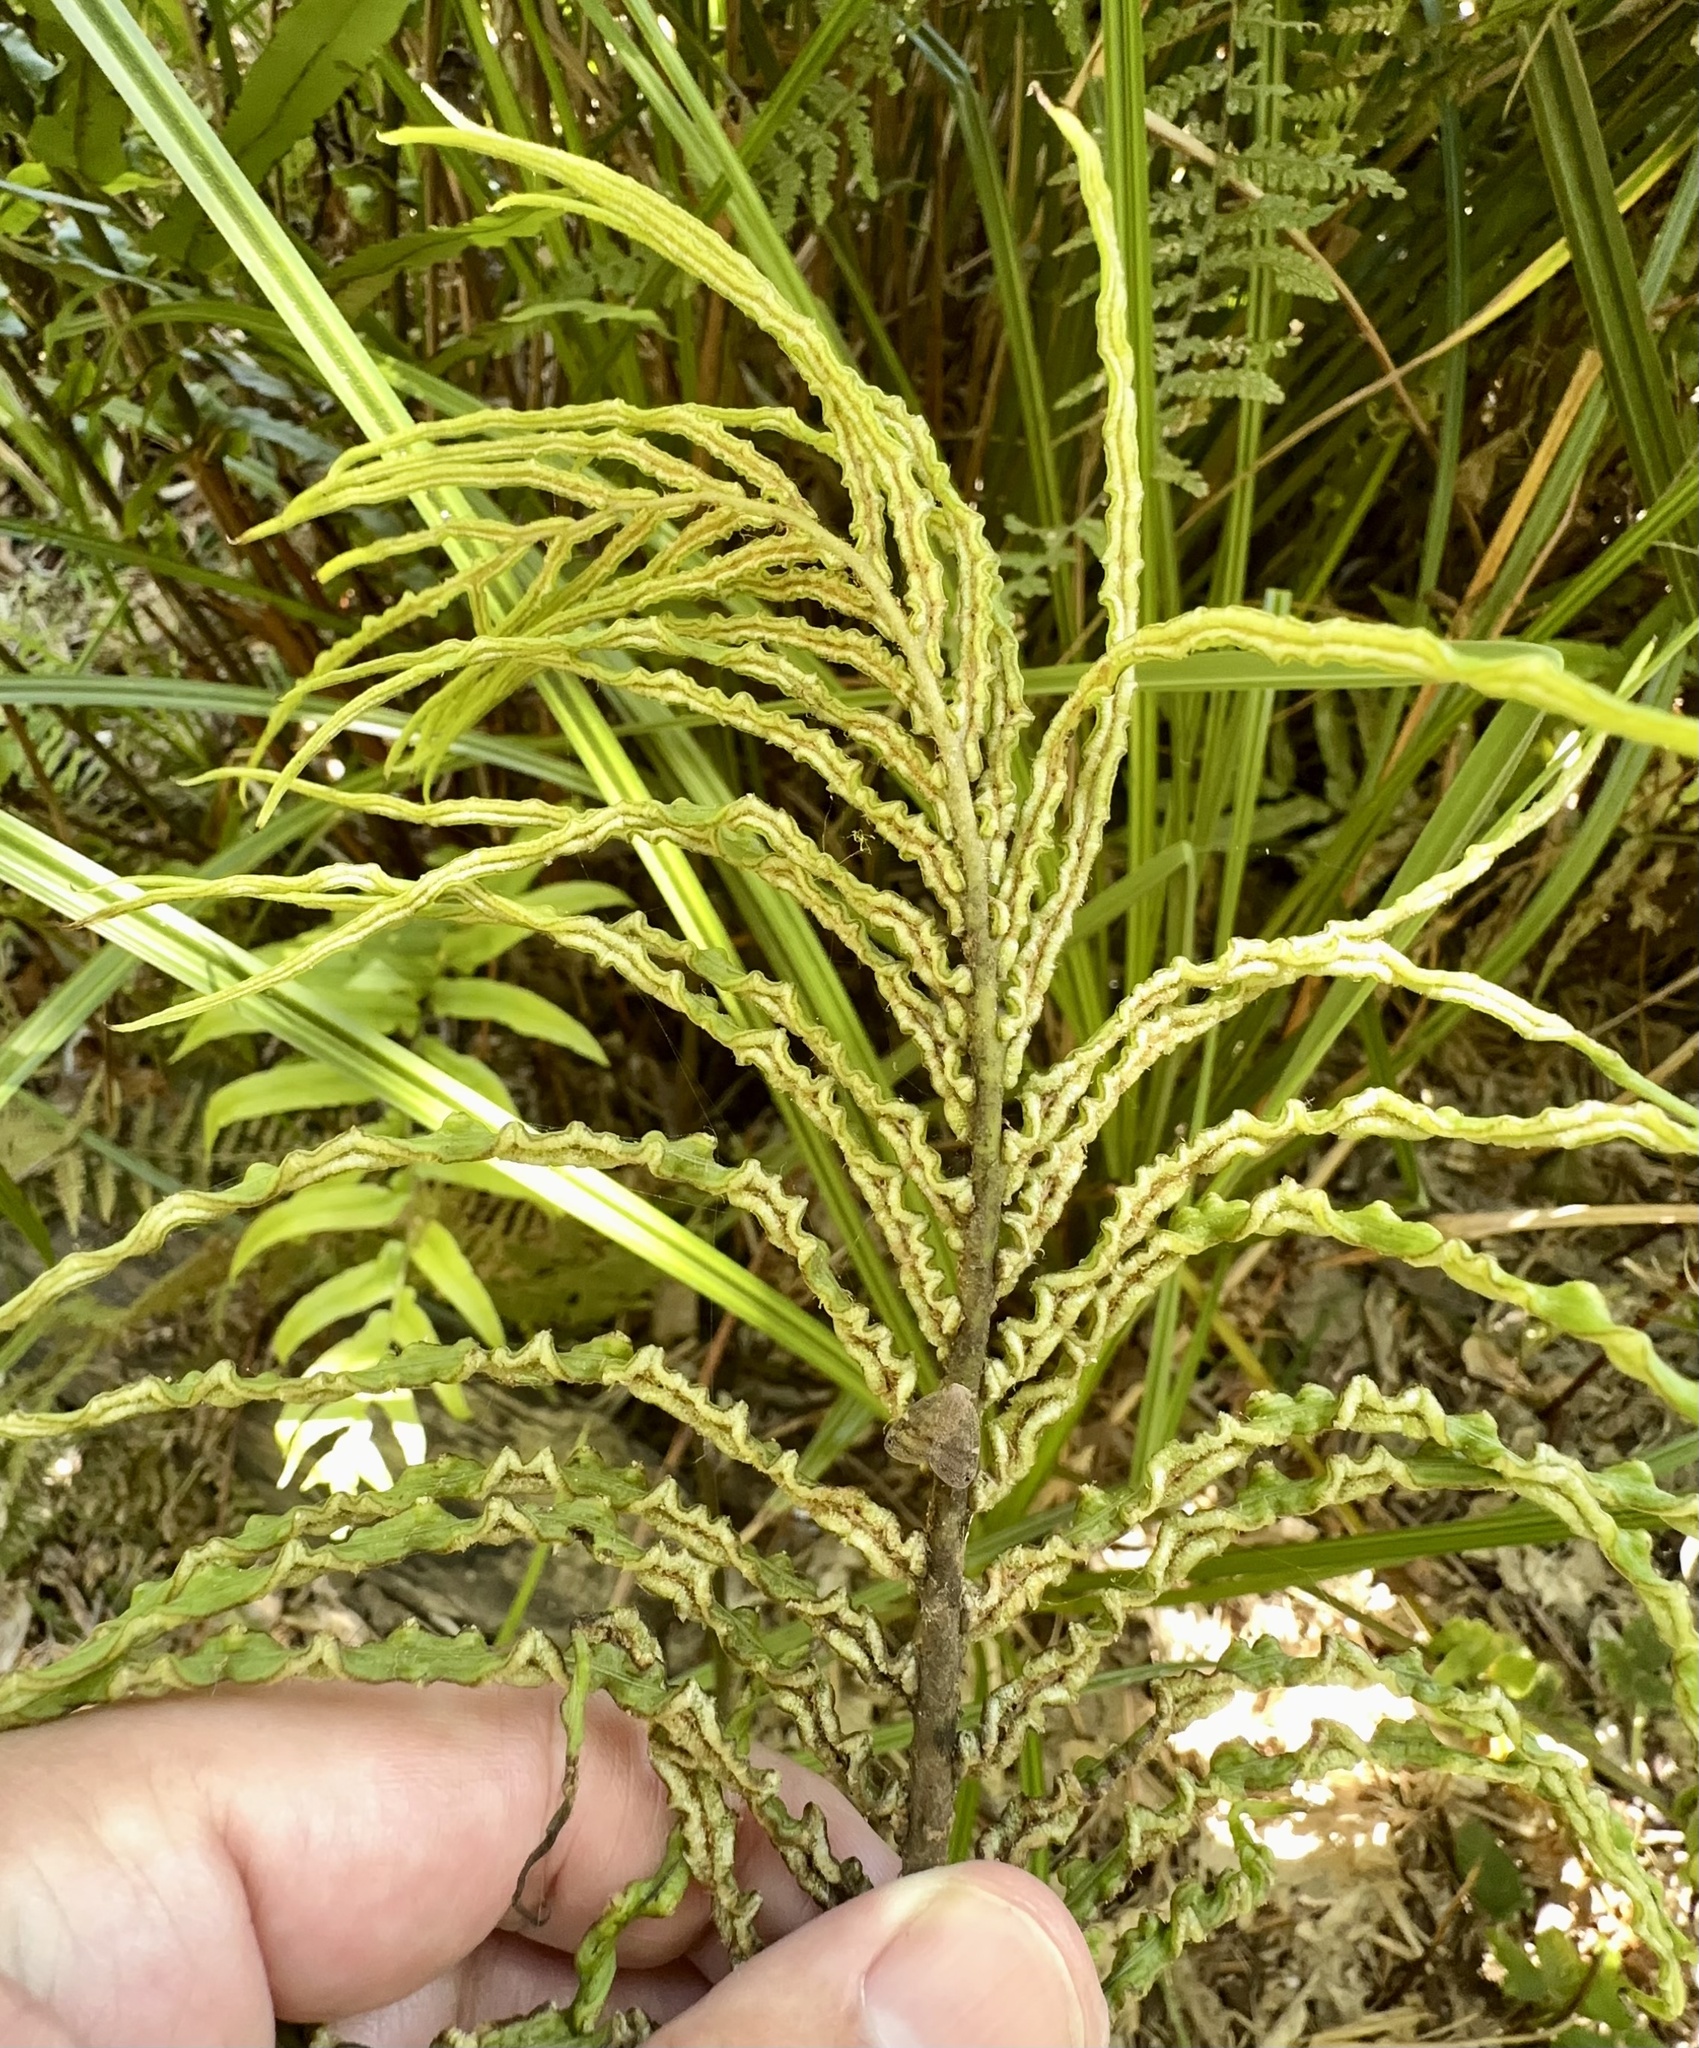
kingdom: Plantae
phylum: Tracheophyta
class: Polypodiopsida
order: Polypodiales
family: Blechnaceae
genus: Parablechnum
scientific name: Parablechnum minus
